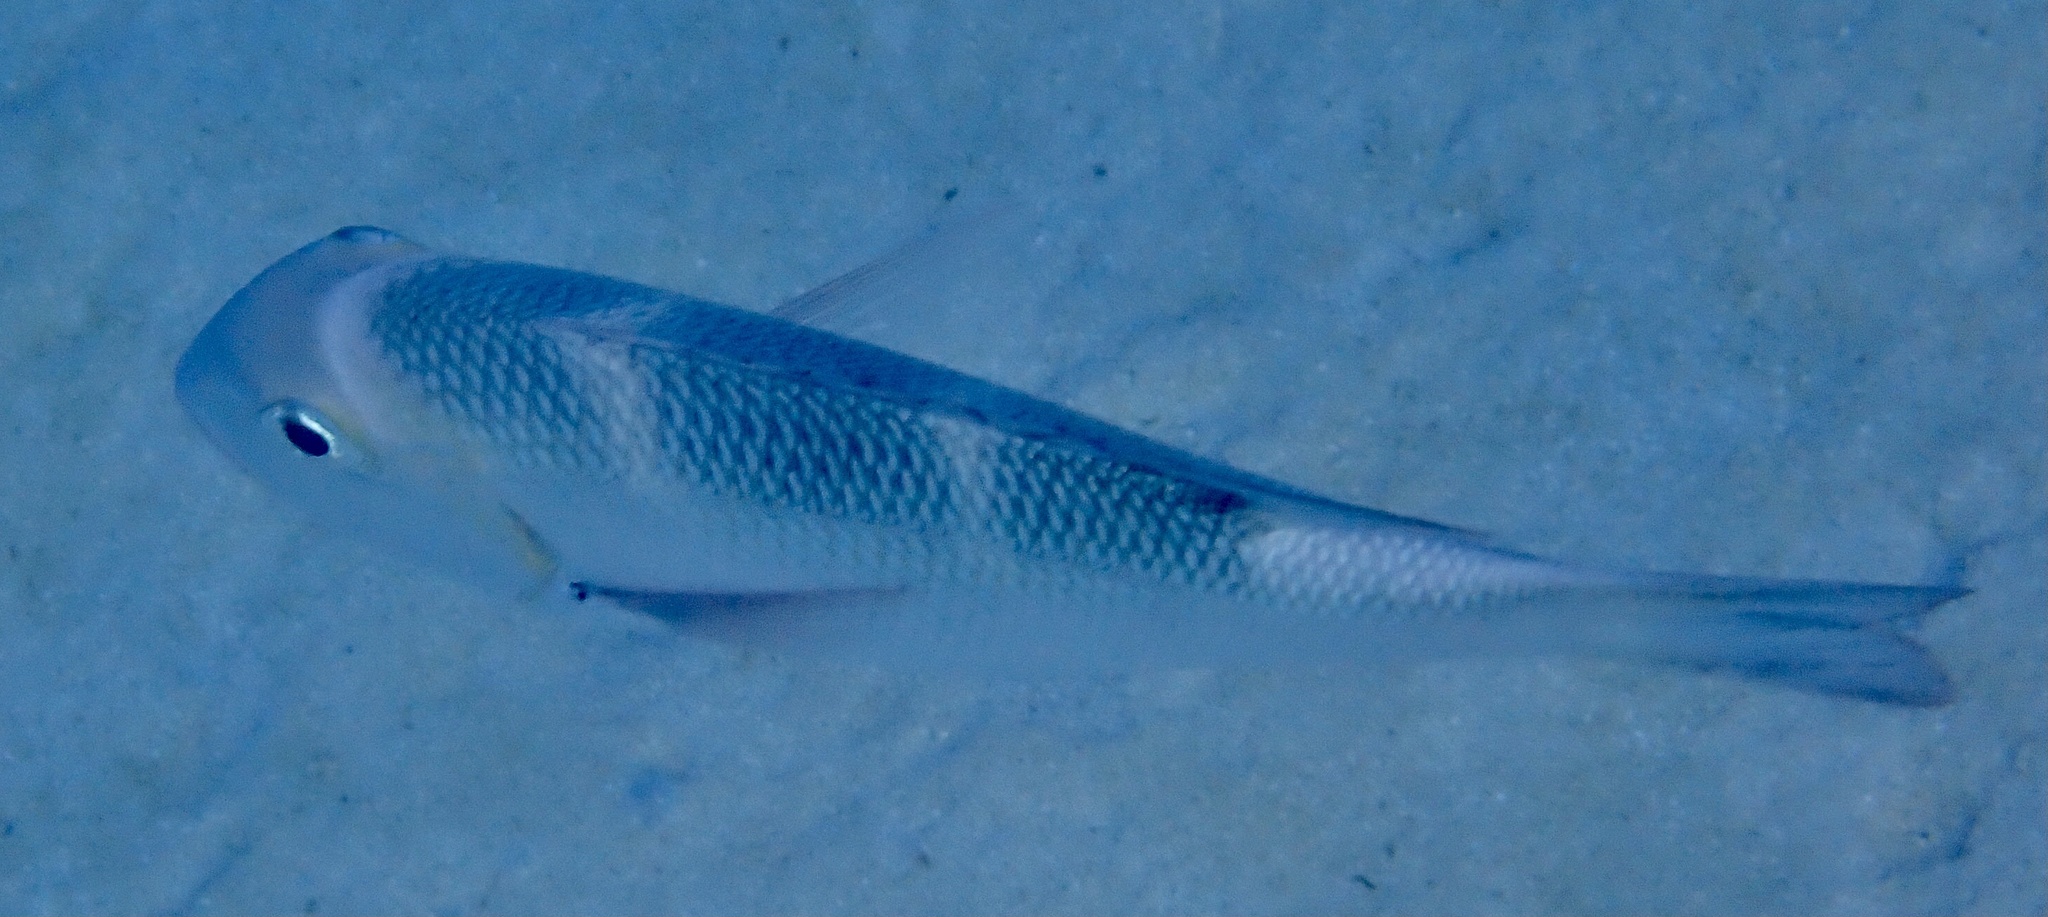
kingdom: Animalia
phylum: Chordata
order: Perciformes
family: Lethrinidae
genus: Monotaxis
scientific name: Monotaxis grandoculis
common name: Bigeye emperor
